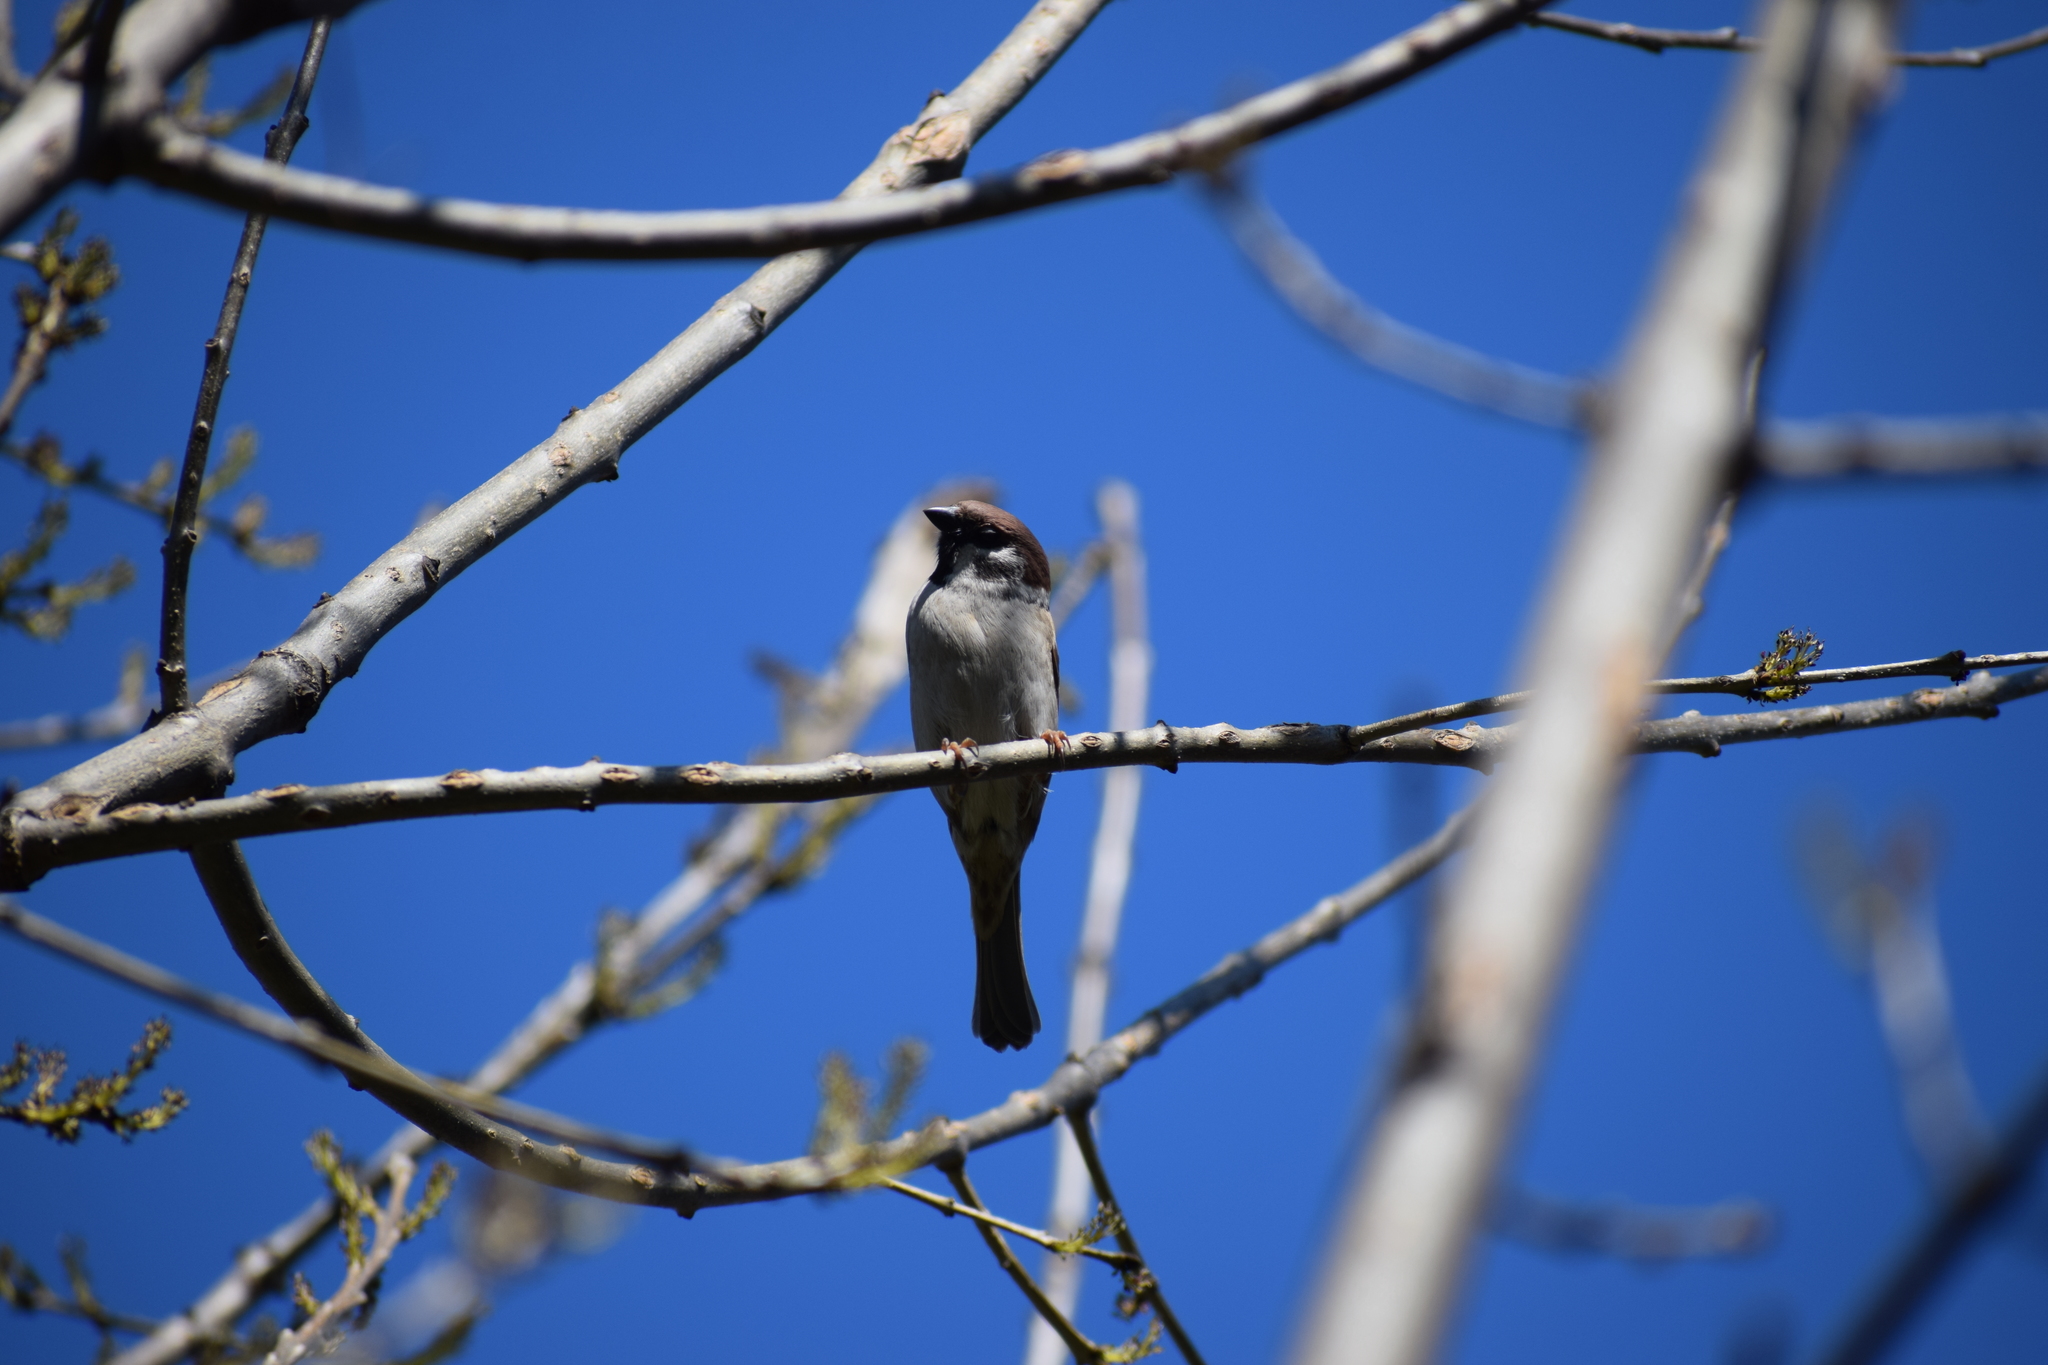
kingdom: Animalia
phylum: Chordata
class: Aves
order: Passeriformes
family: Passeridae
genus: Passer
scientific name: Passer montanus
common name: Eurasian tree sparrow
